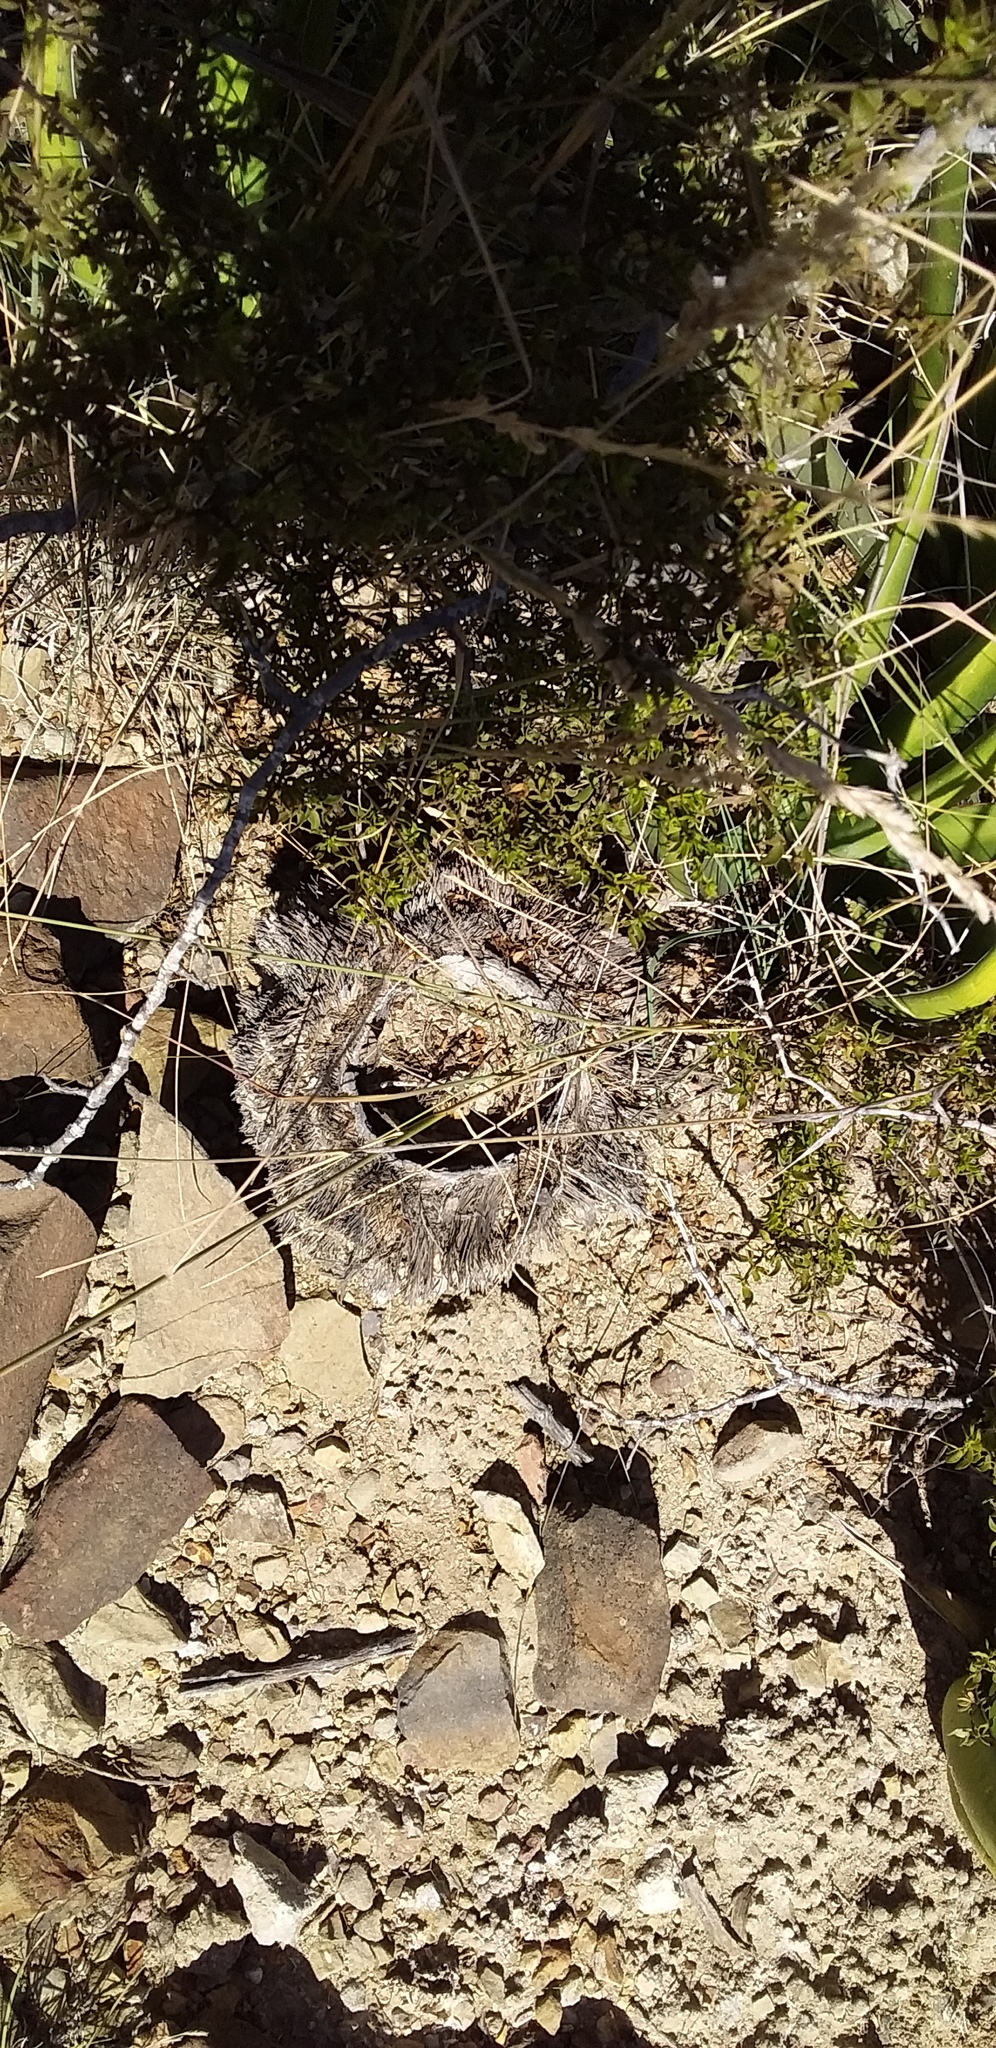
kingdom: Plantae
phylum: Tracheophyta
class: Magnoliopsida
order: Zygophyllales
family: Zygophyllaceae
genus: Larrea
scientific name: Larrea tridentata
